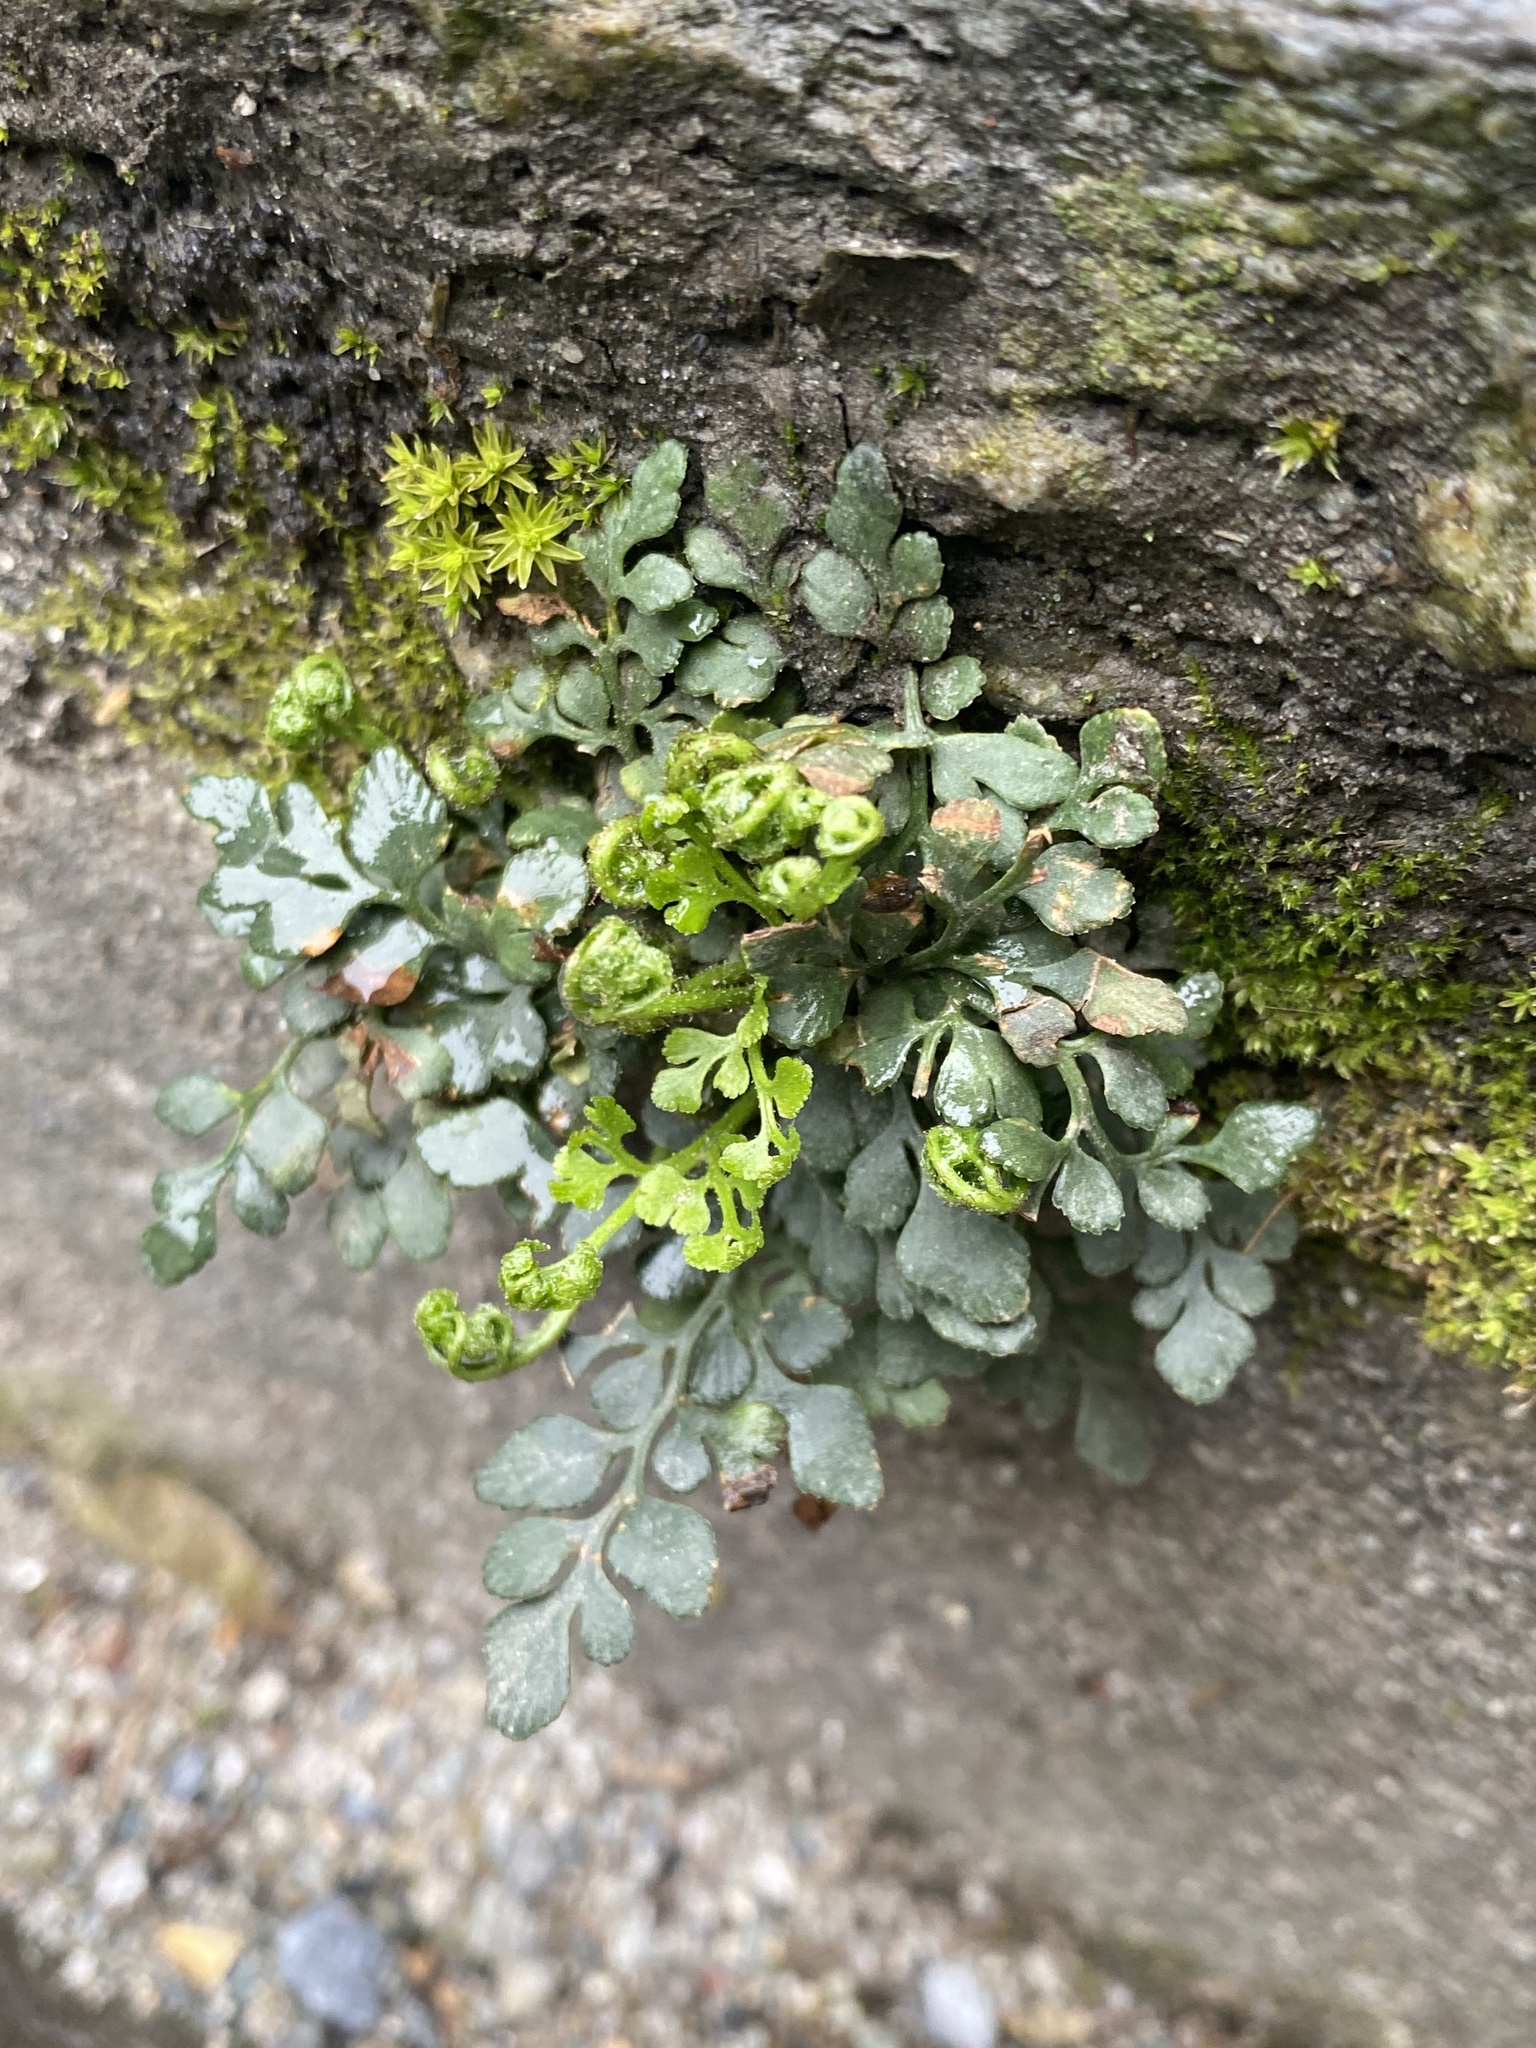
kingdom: Plantae
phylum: Tracheophyta
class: Polypodiopsida
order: Polypodiales
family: Aspleniaceae
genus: Asplenium
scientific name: Asplenium ruta-muraria
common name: Wall-rue
